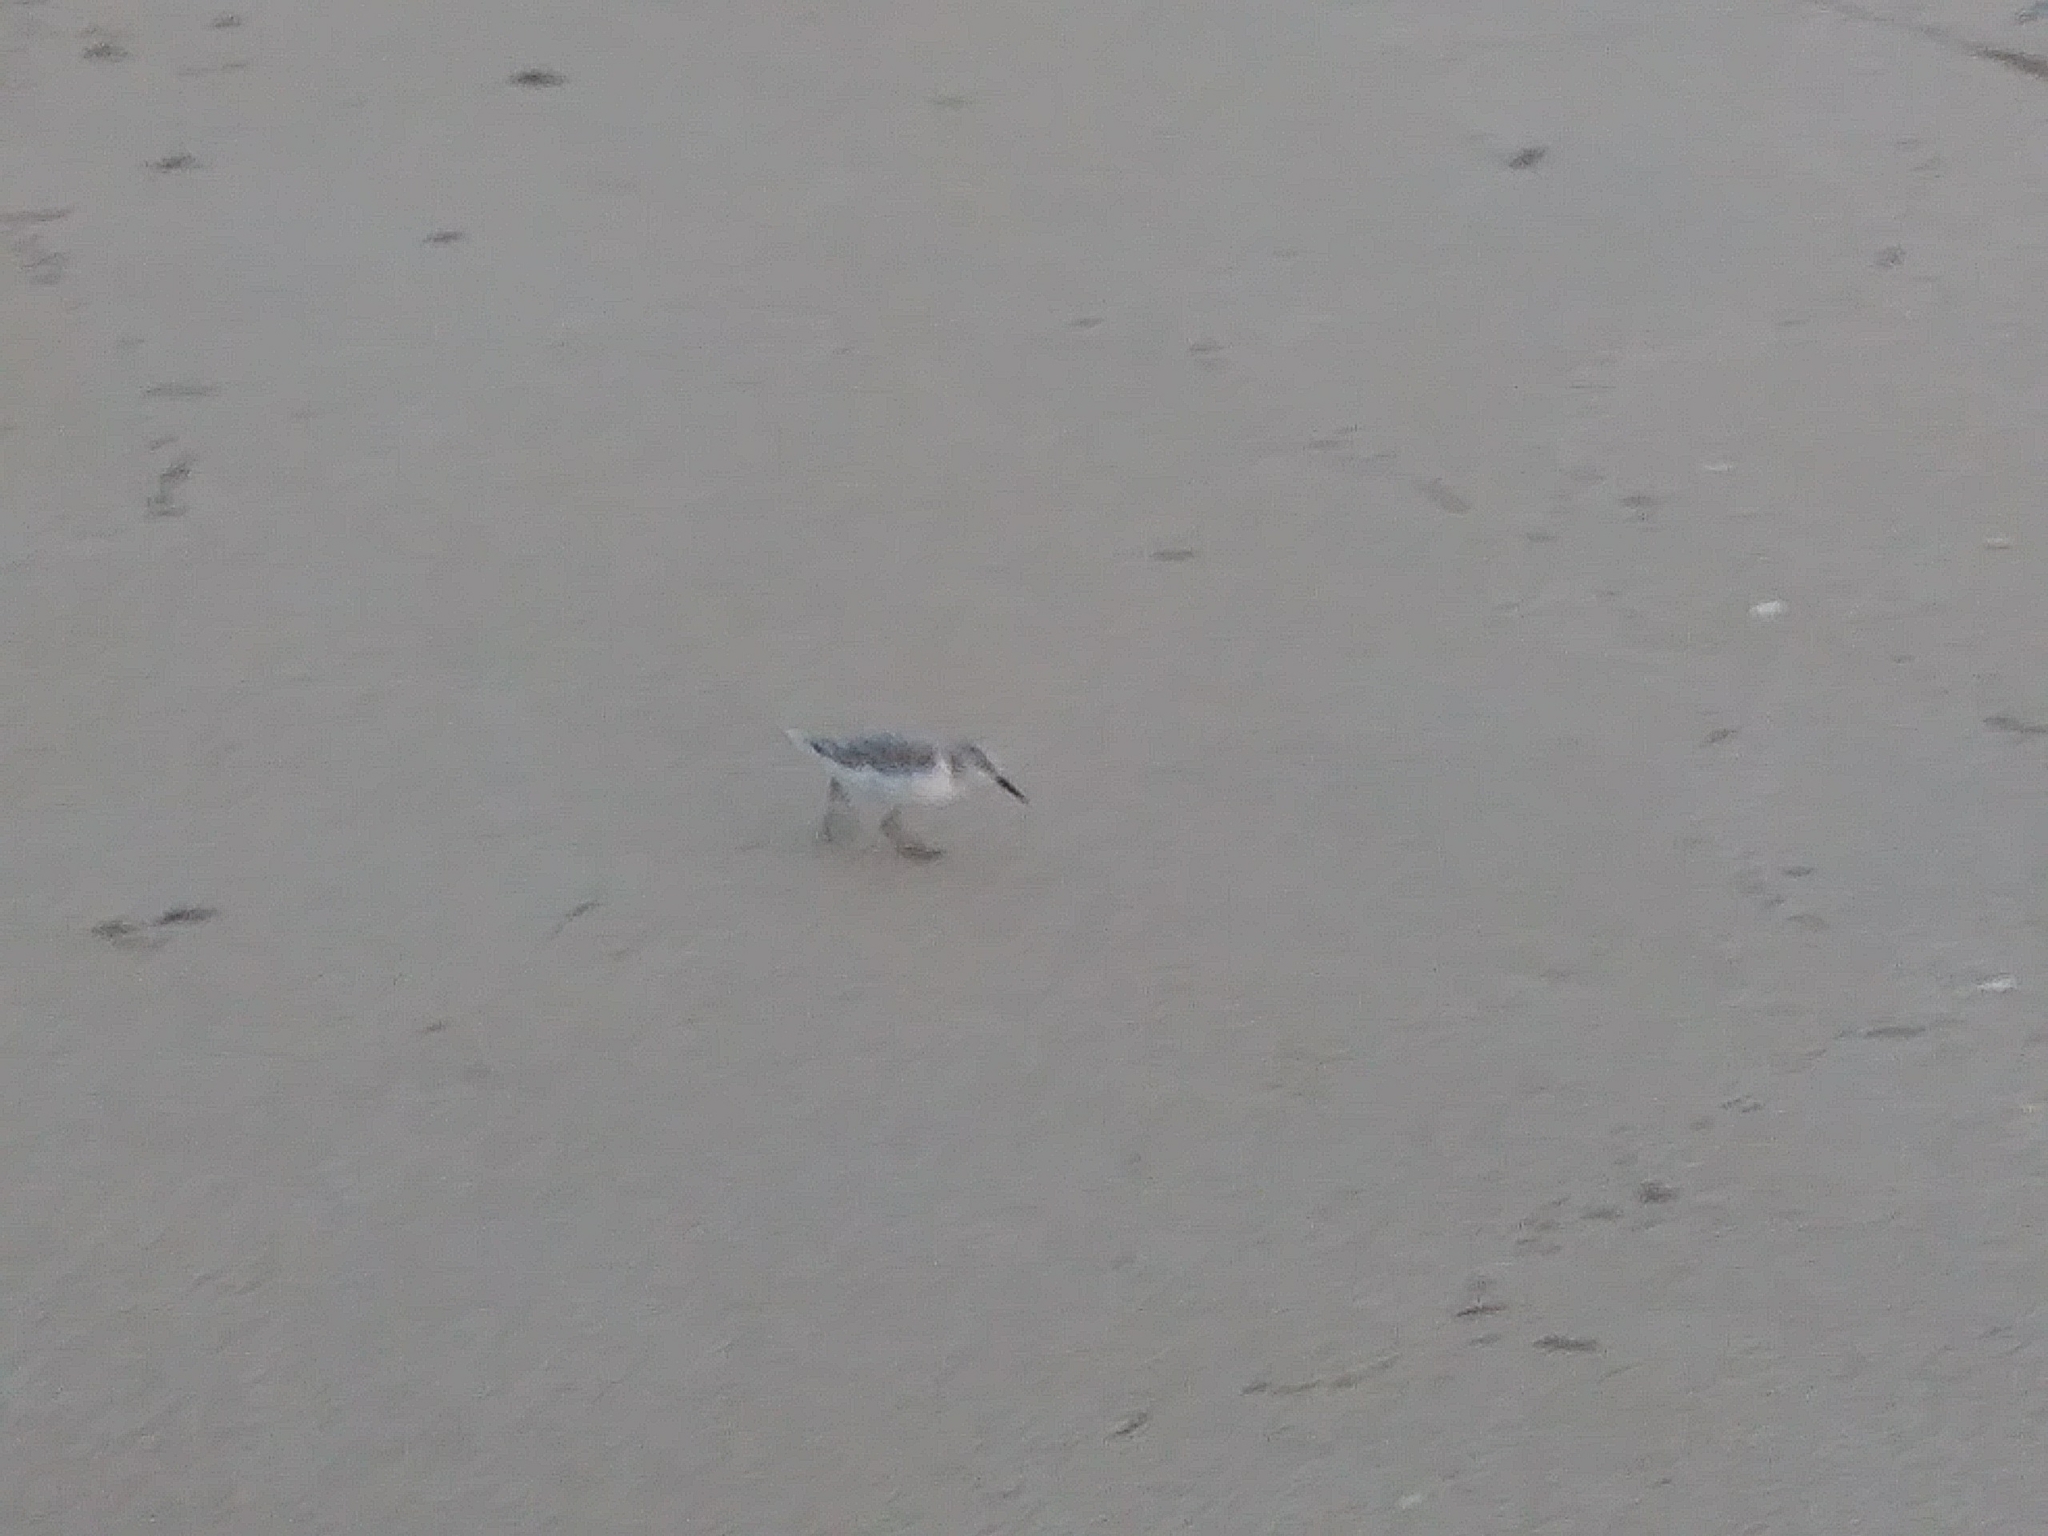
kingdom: Animalia
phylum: Chordata
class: Aves
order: Charadriiformes
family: Scolopacidae
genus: Calidris
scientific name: Calidris alba
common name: Sanderling
